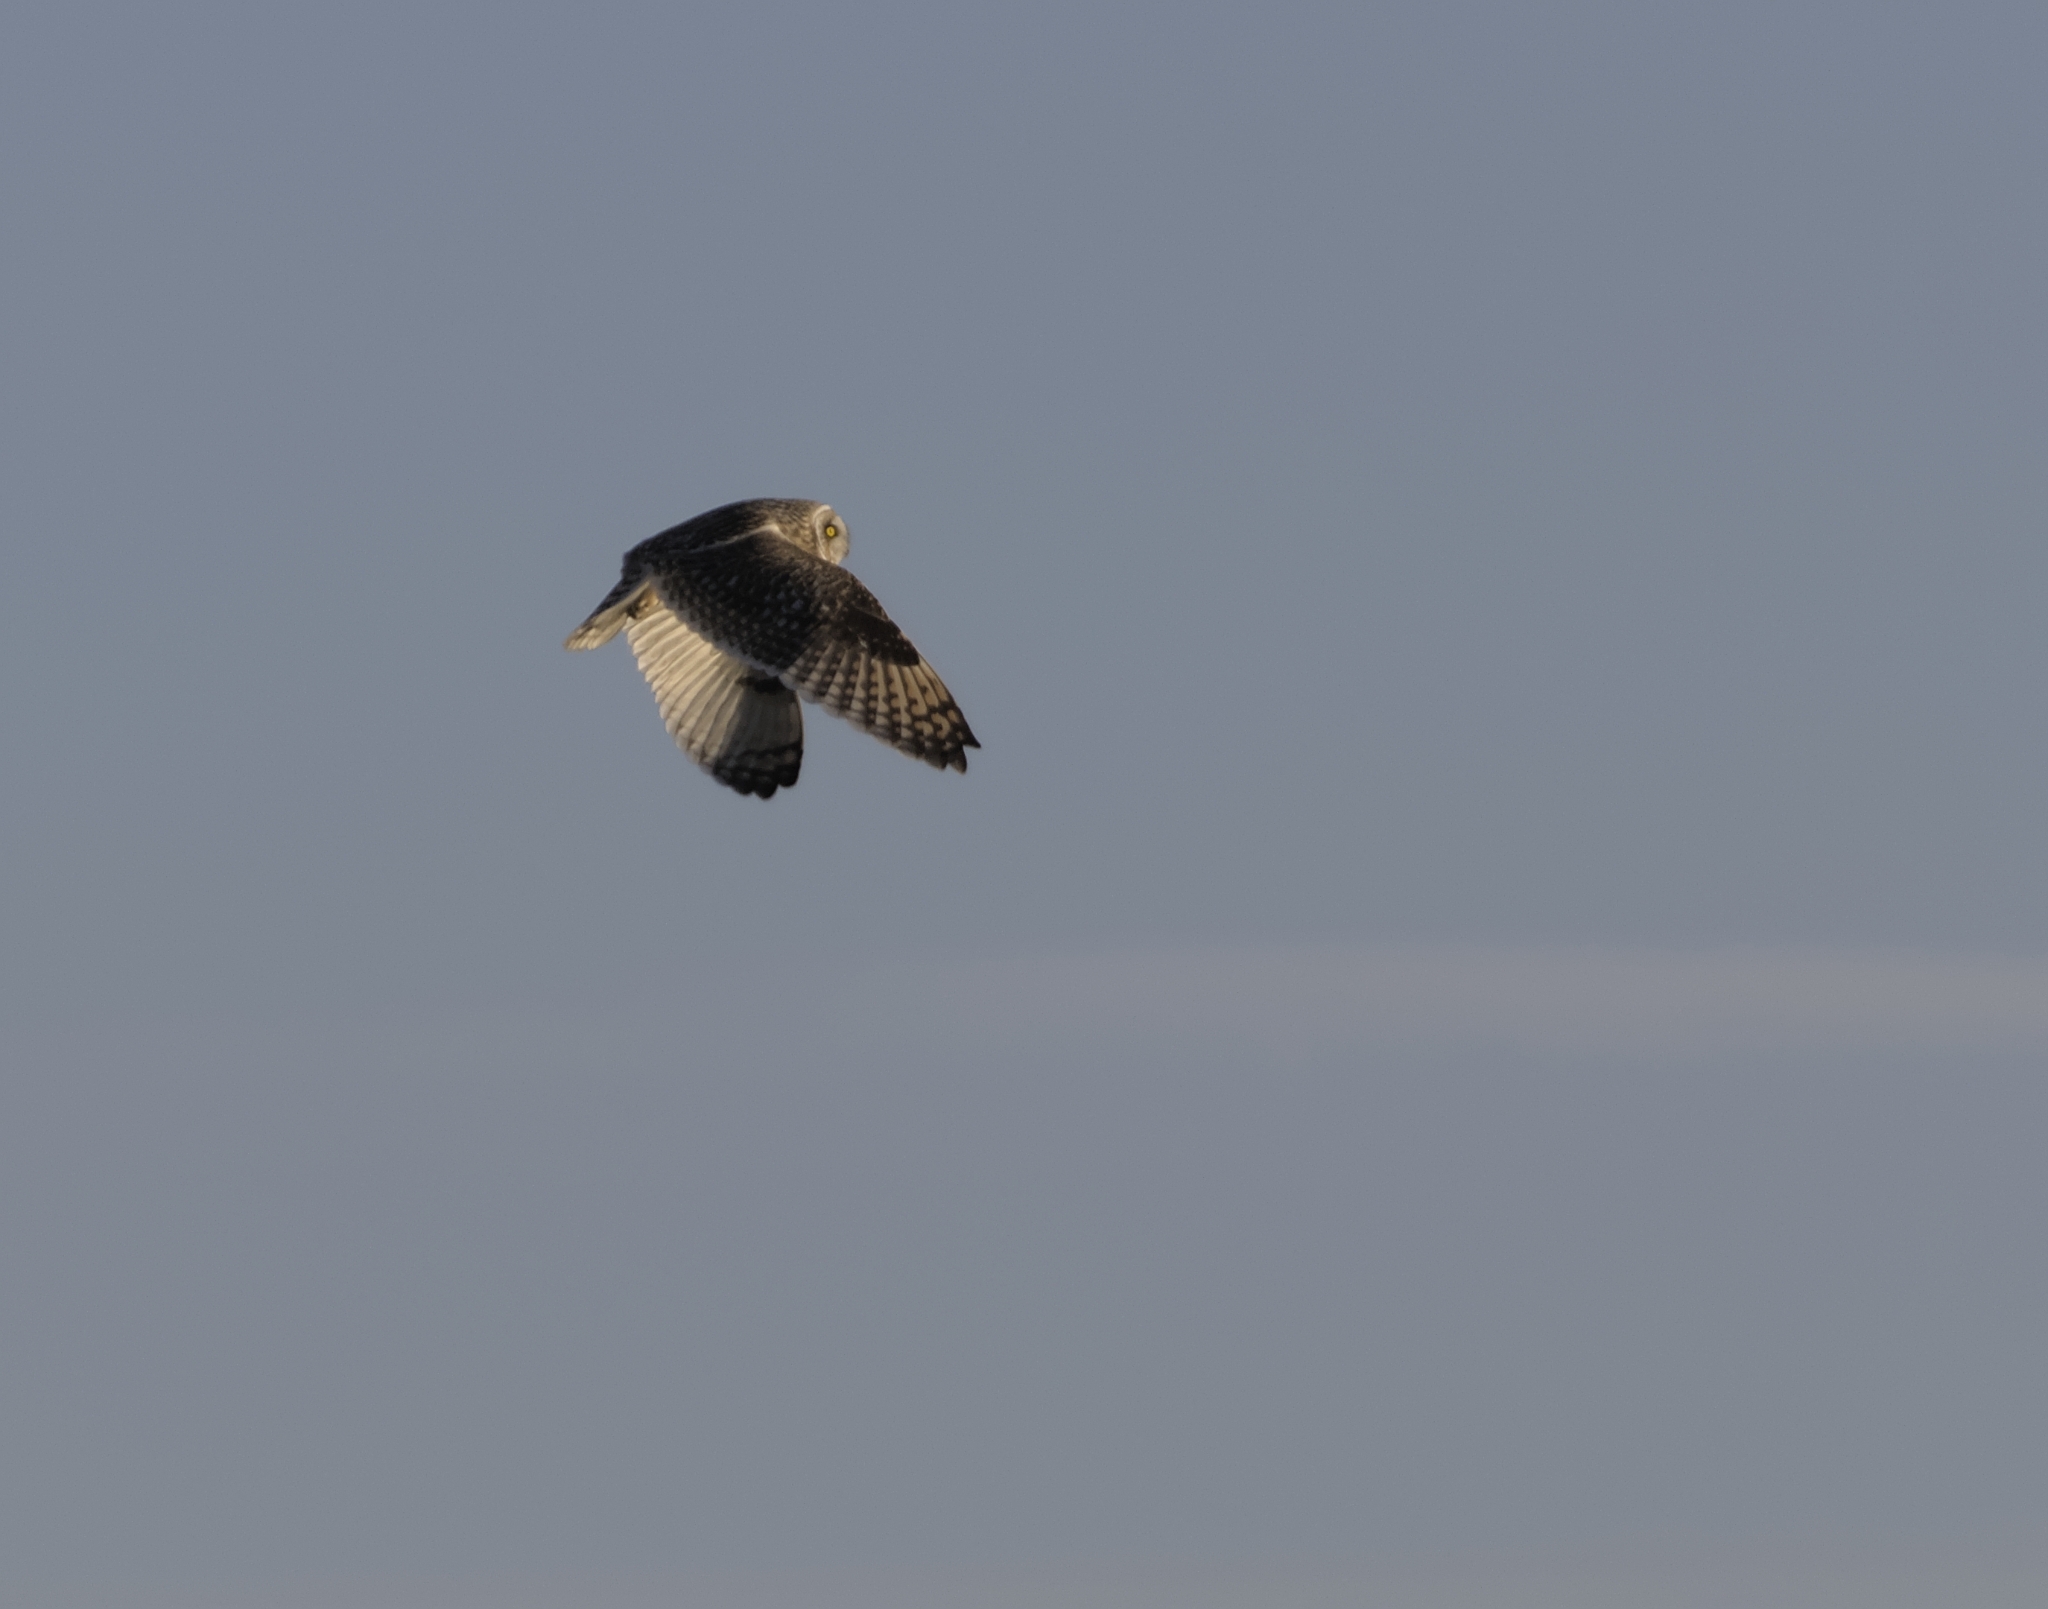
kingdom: Animalia
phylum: Chordata
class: Aves
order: Strigiformes
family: Strigidae
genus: Asio
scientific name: Asio flammeus
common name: Short-eared owl
